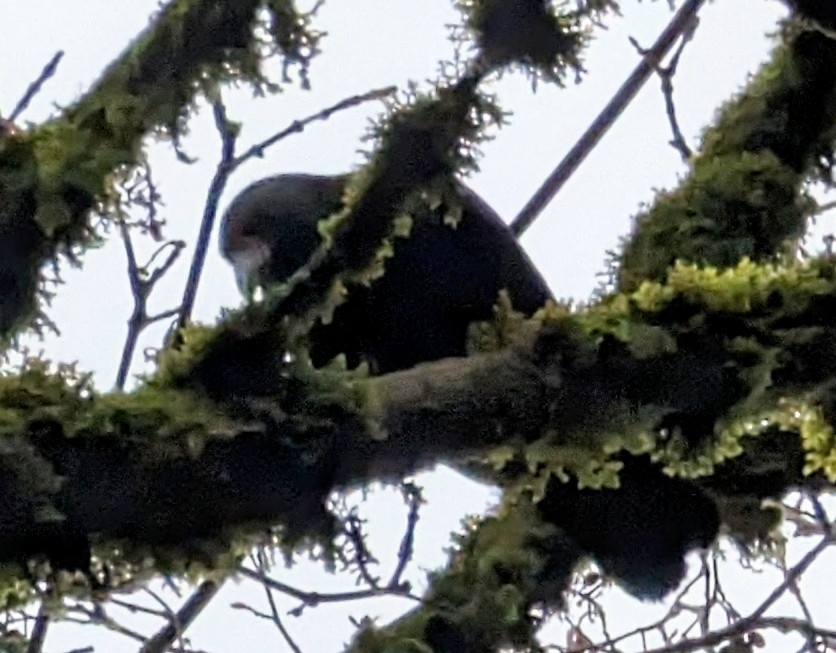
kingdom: Animalia
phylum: Chordata
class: Aves
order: Passeriformes
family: Corvidae
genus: Corvus
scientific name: Corvus brachyrhynchos
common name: American crow
